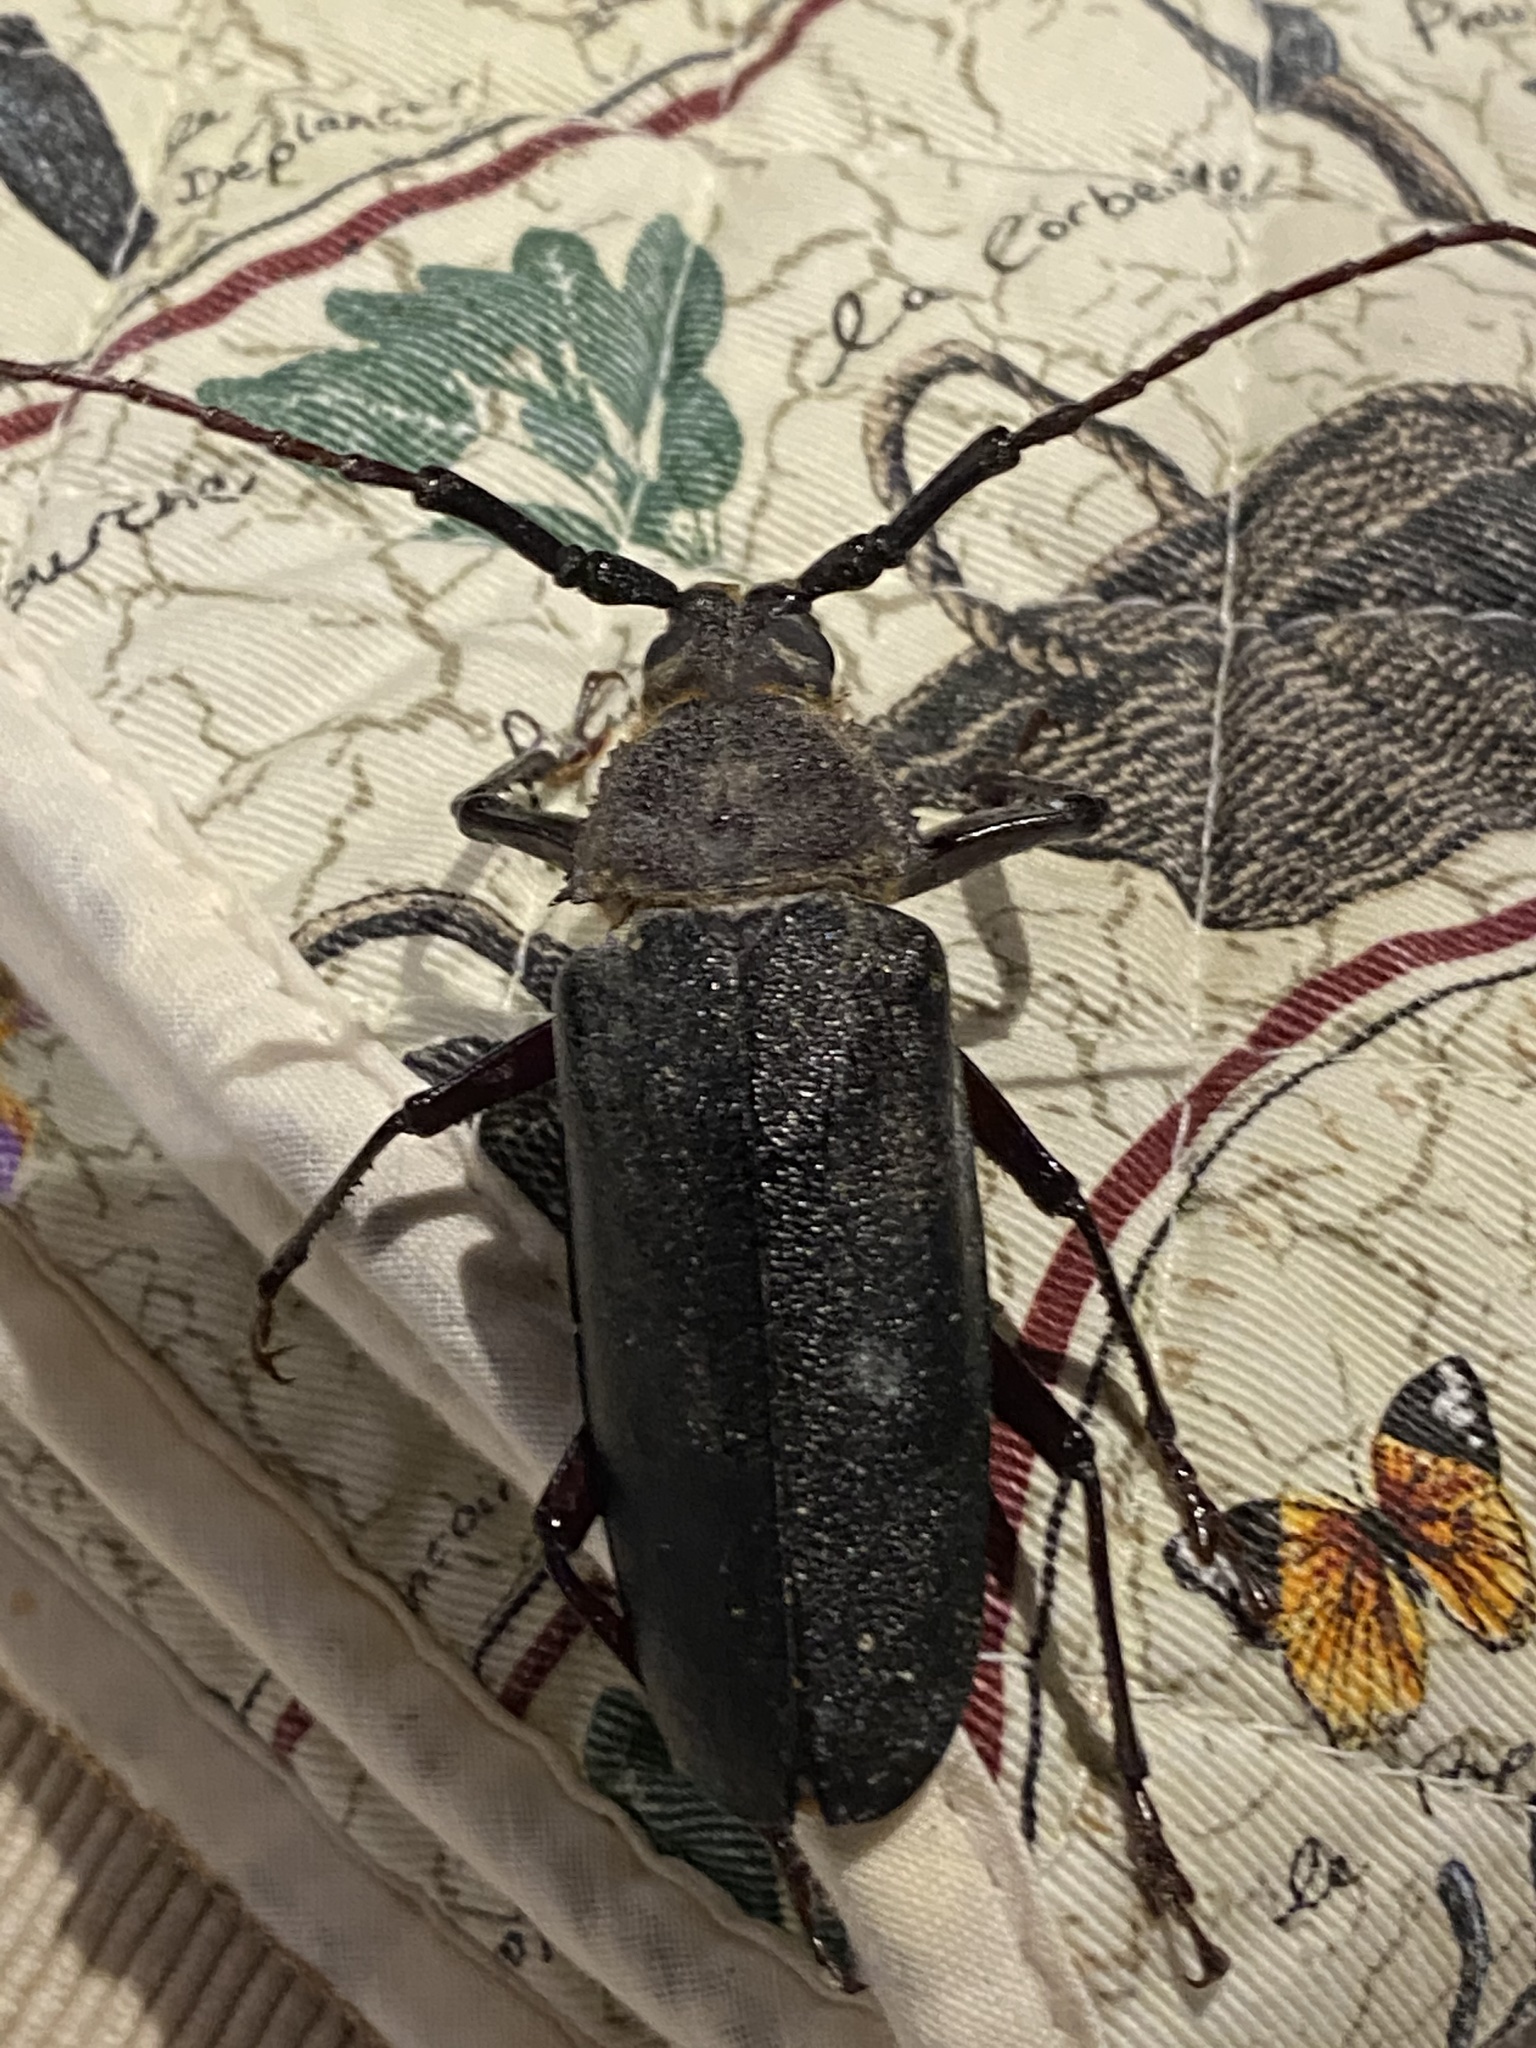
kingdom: Animalia
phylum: Arthropoda
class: Insecta
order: Coleoptera
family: Cerambycidae
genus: Paramacrotoma
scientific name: Paramacrotoma scabridorsis
